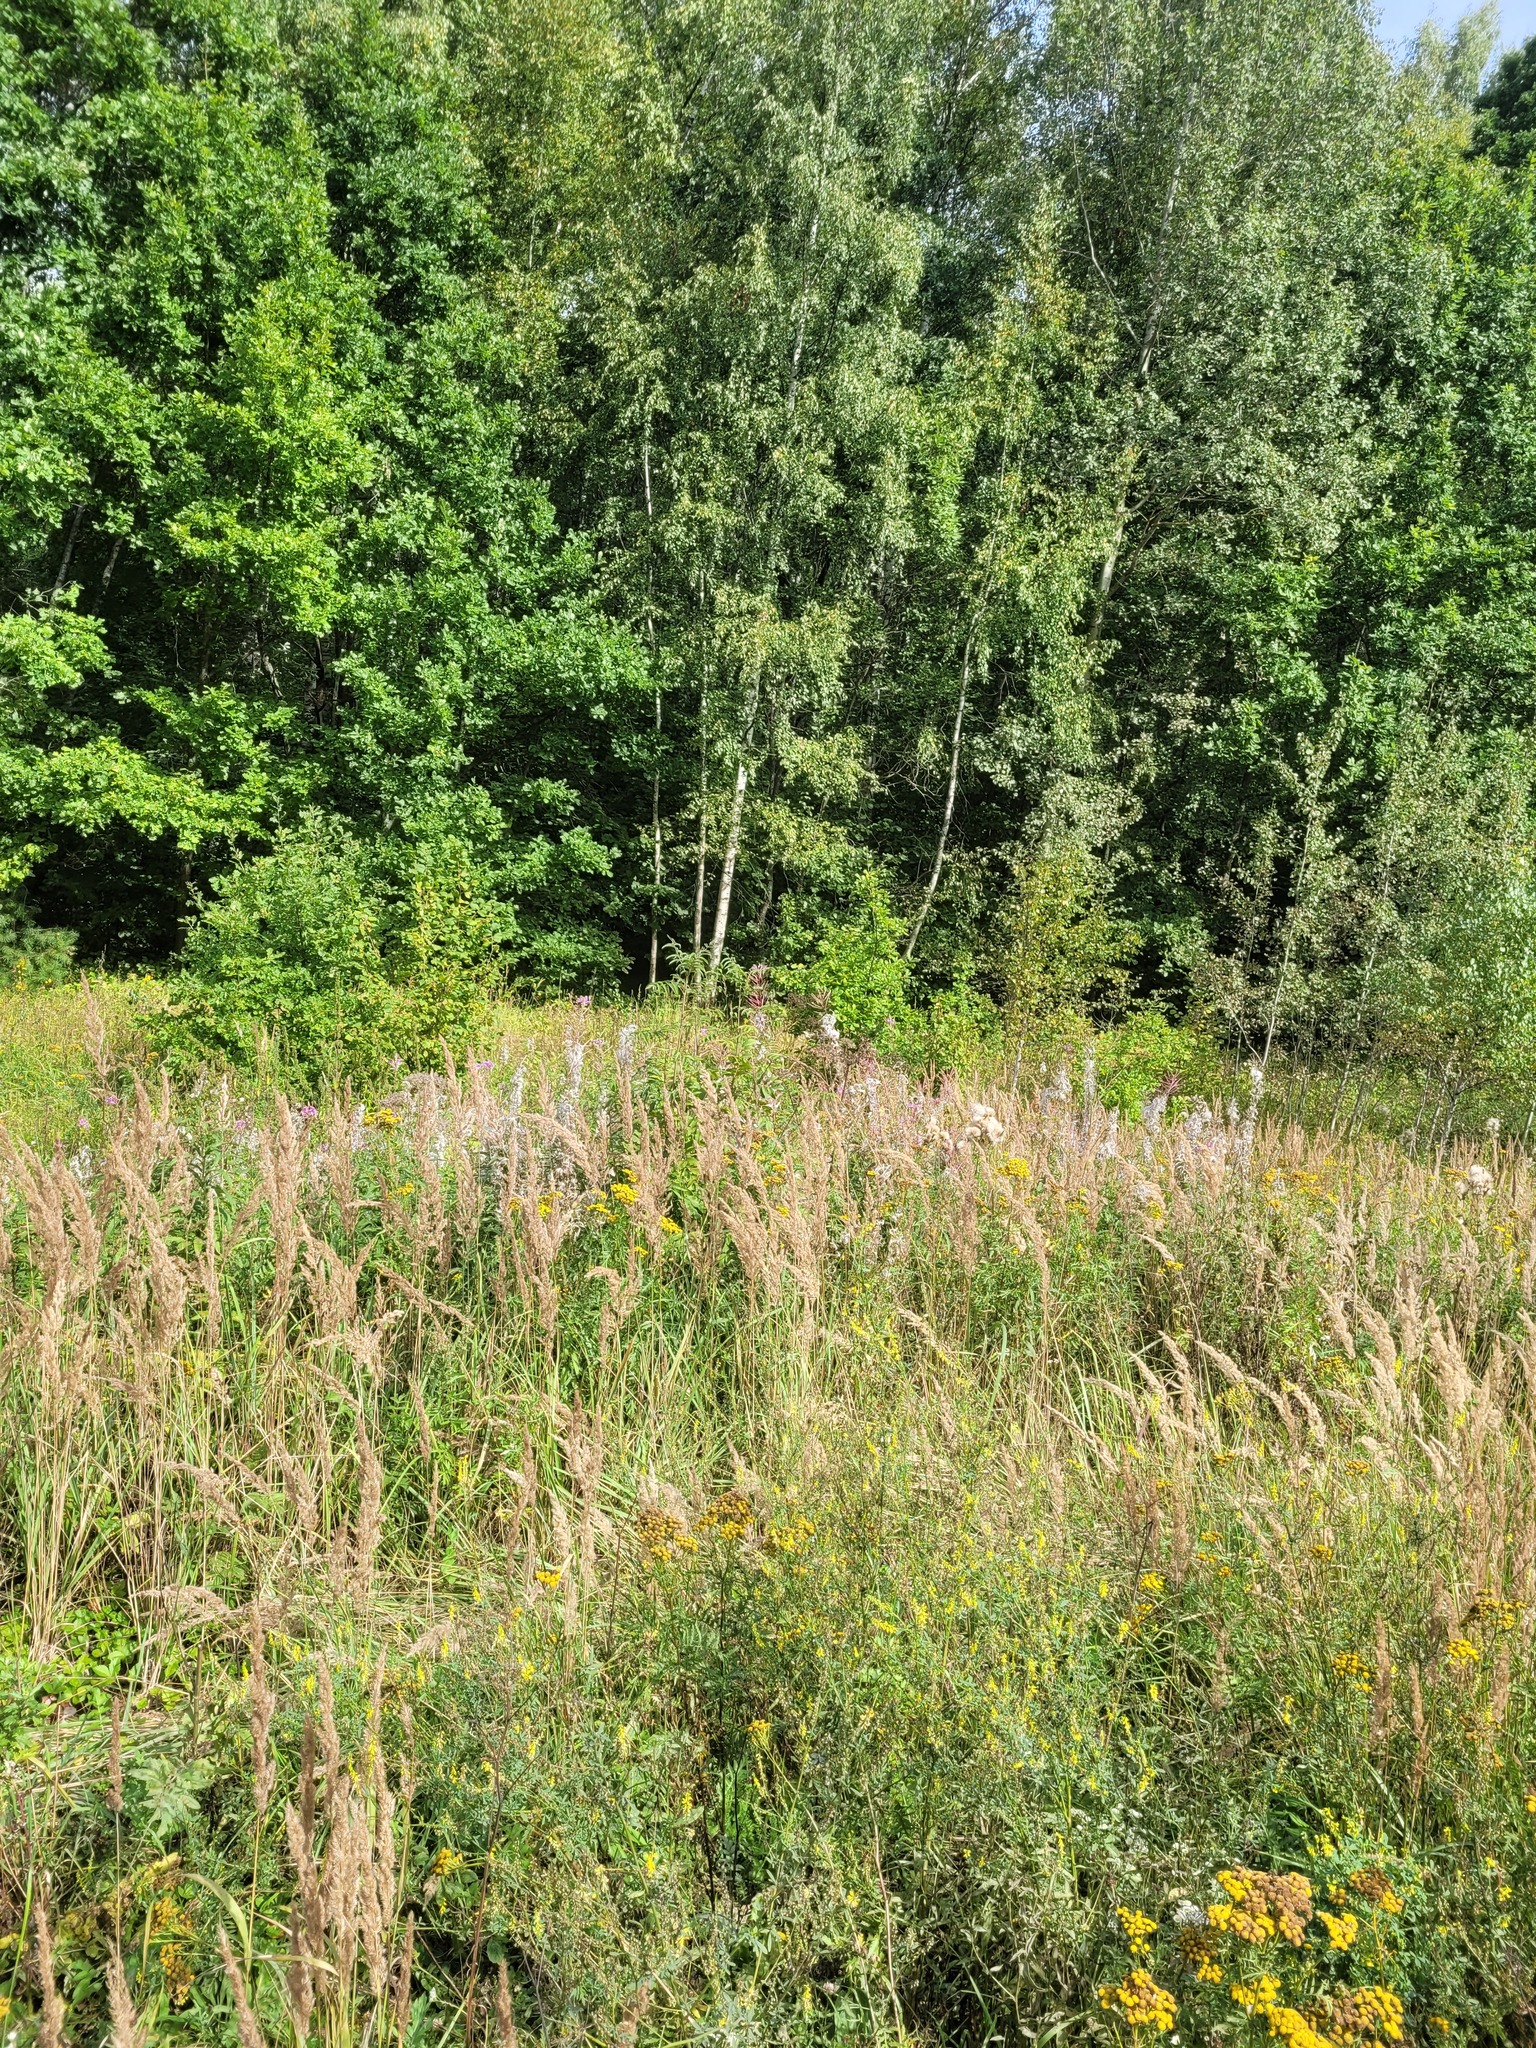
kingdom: Plantae
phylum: Tracheophyta
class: Liliopsida
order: Poales
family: Poaceae
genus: Calamagrostis
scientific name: Calamagrostis epigejos
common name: Wood small-reed
